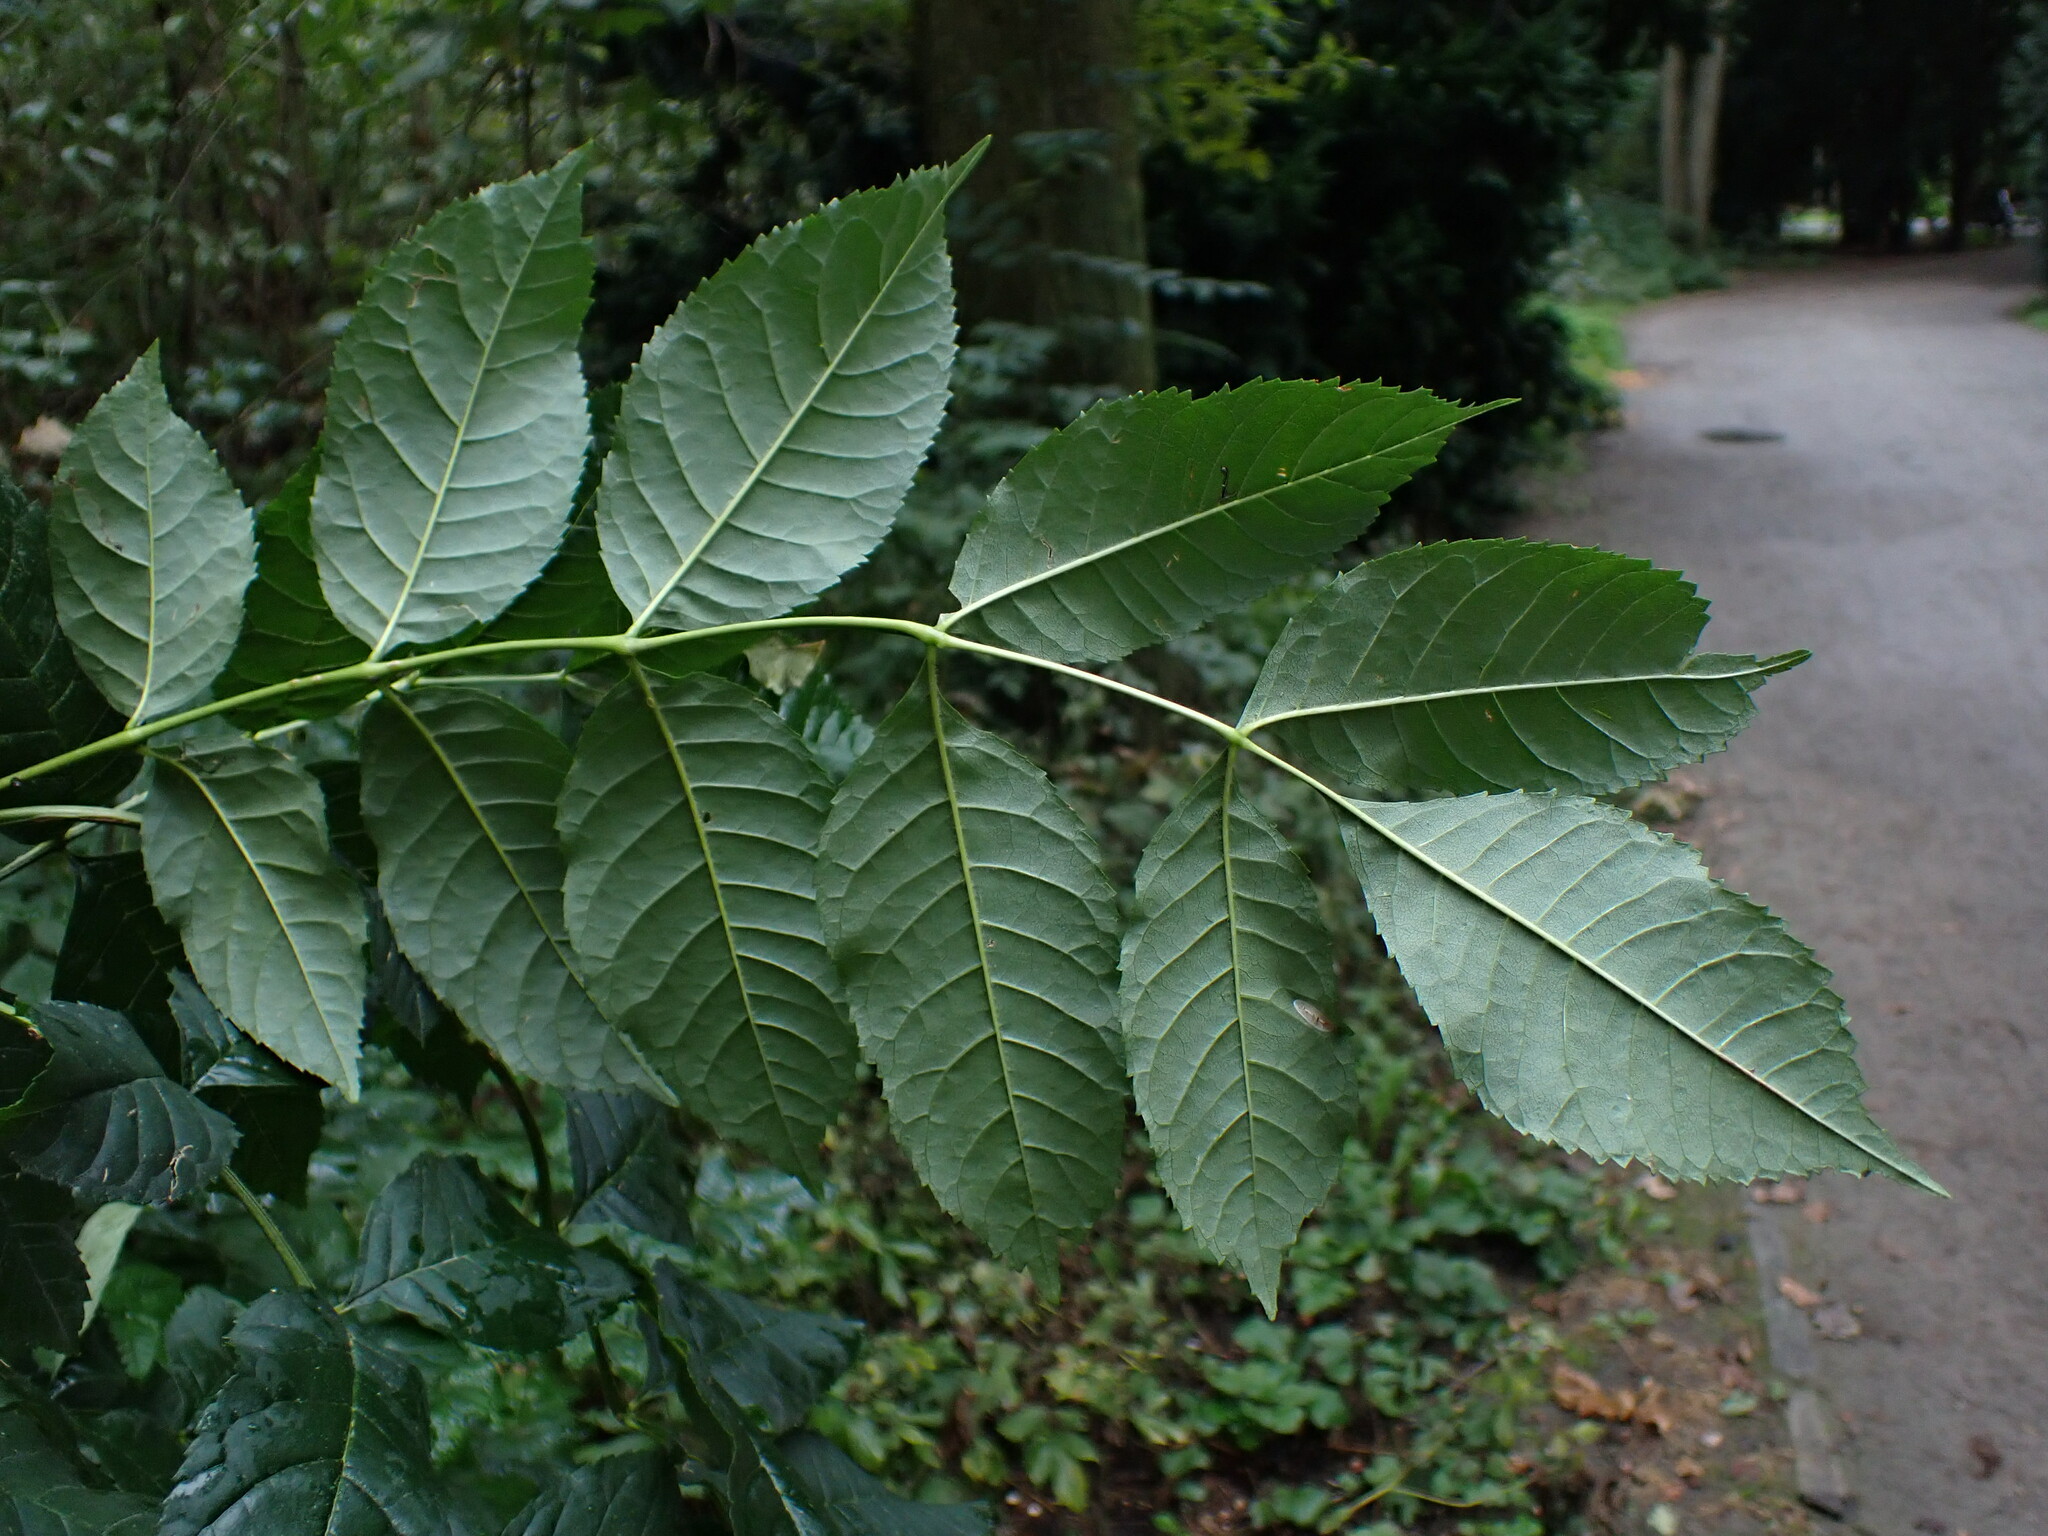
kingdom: Plantae
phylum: Tracheophyta
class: Magnoliopsida
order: Lamiales
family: Oleaceae
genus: Fraxinus
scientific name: Fraxinus excelsior
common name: European ash
